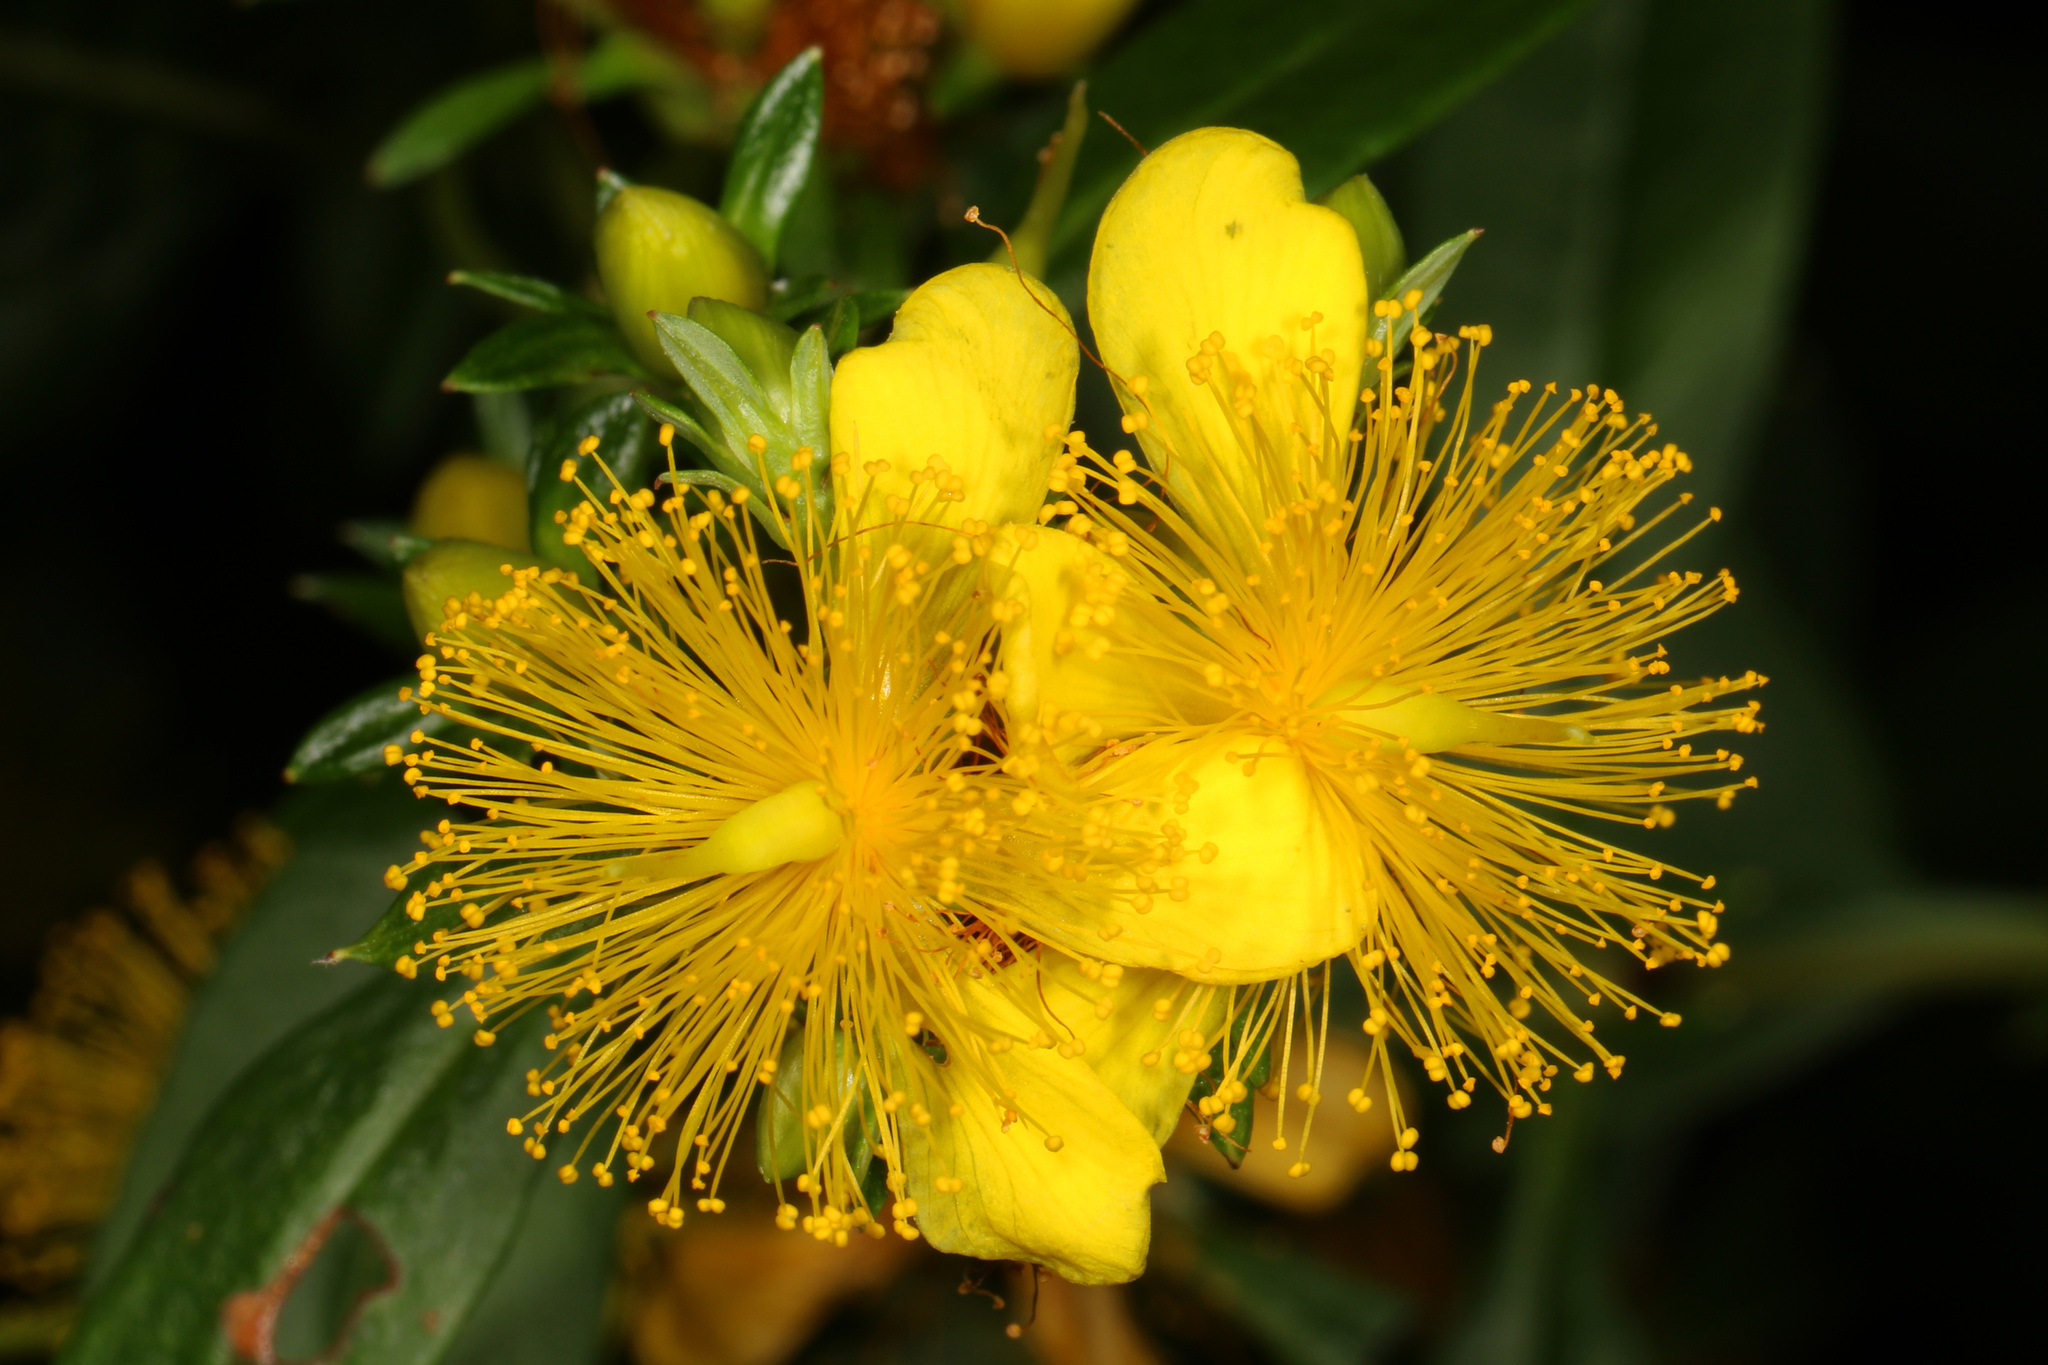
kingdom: Plantae
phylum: Tracheophyta
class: Magnoliopsida
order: Malpighiales
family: Hypericaceae
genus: Hypericum
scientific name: Hypericum prolificum
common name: Shrubby st. john's-wort
